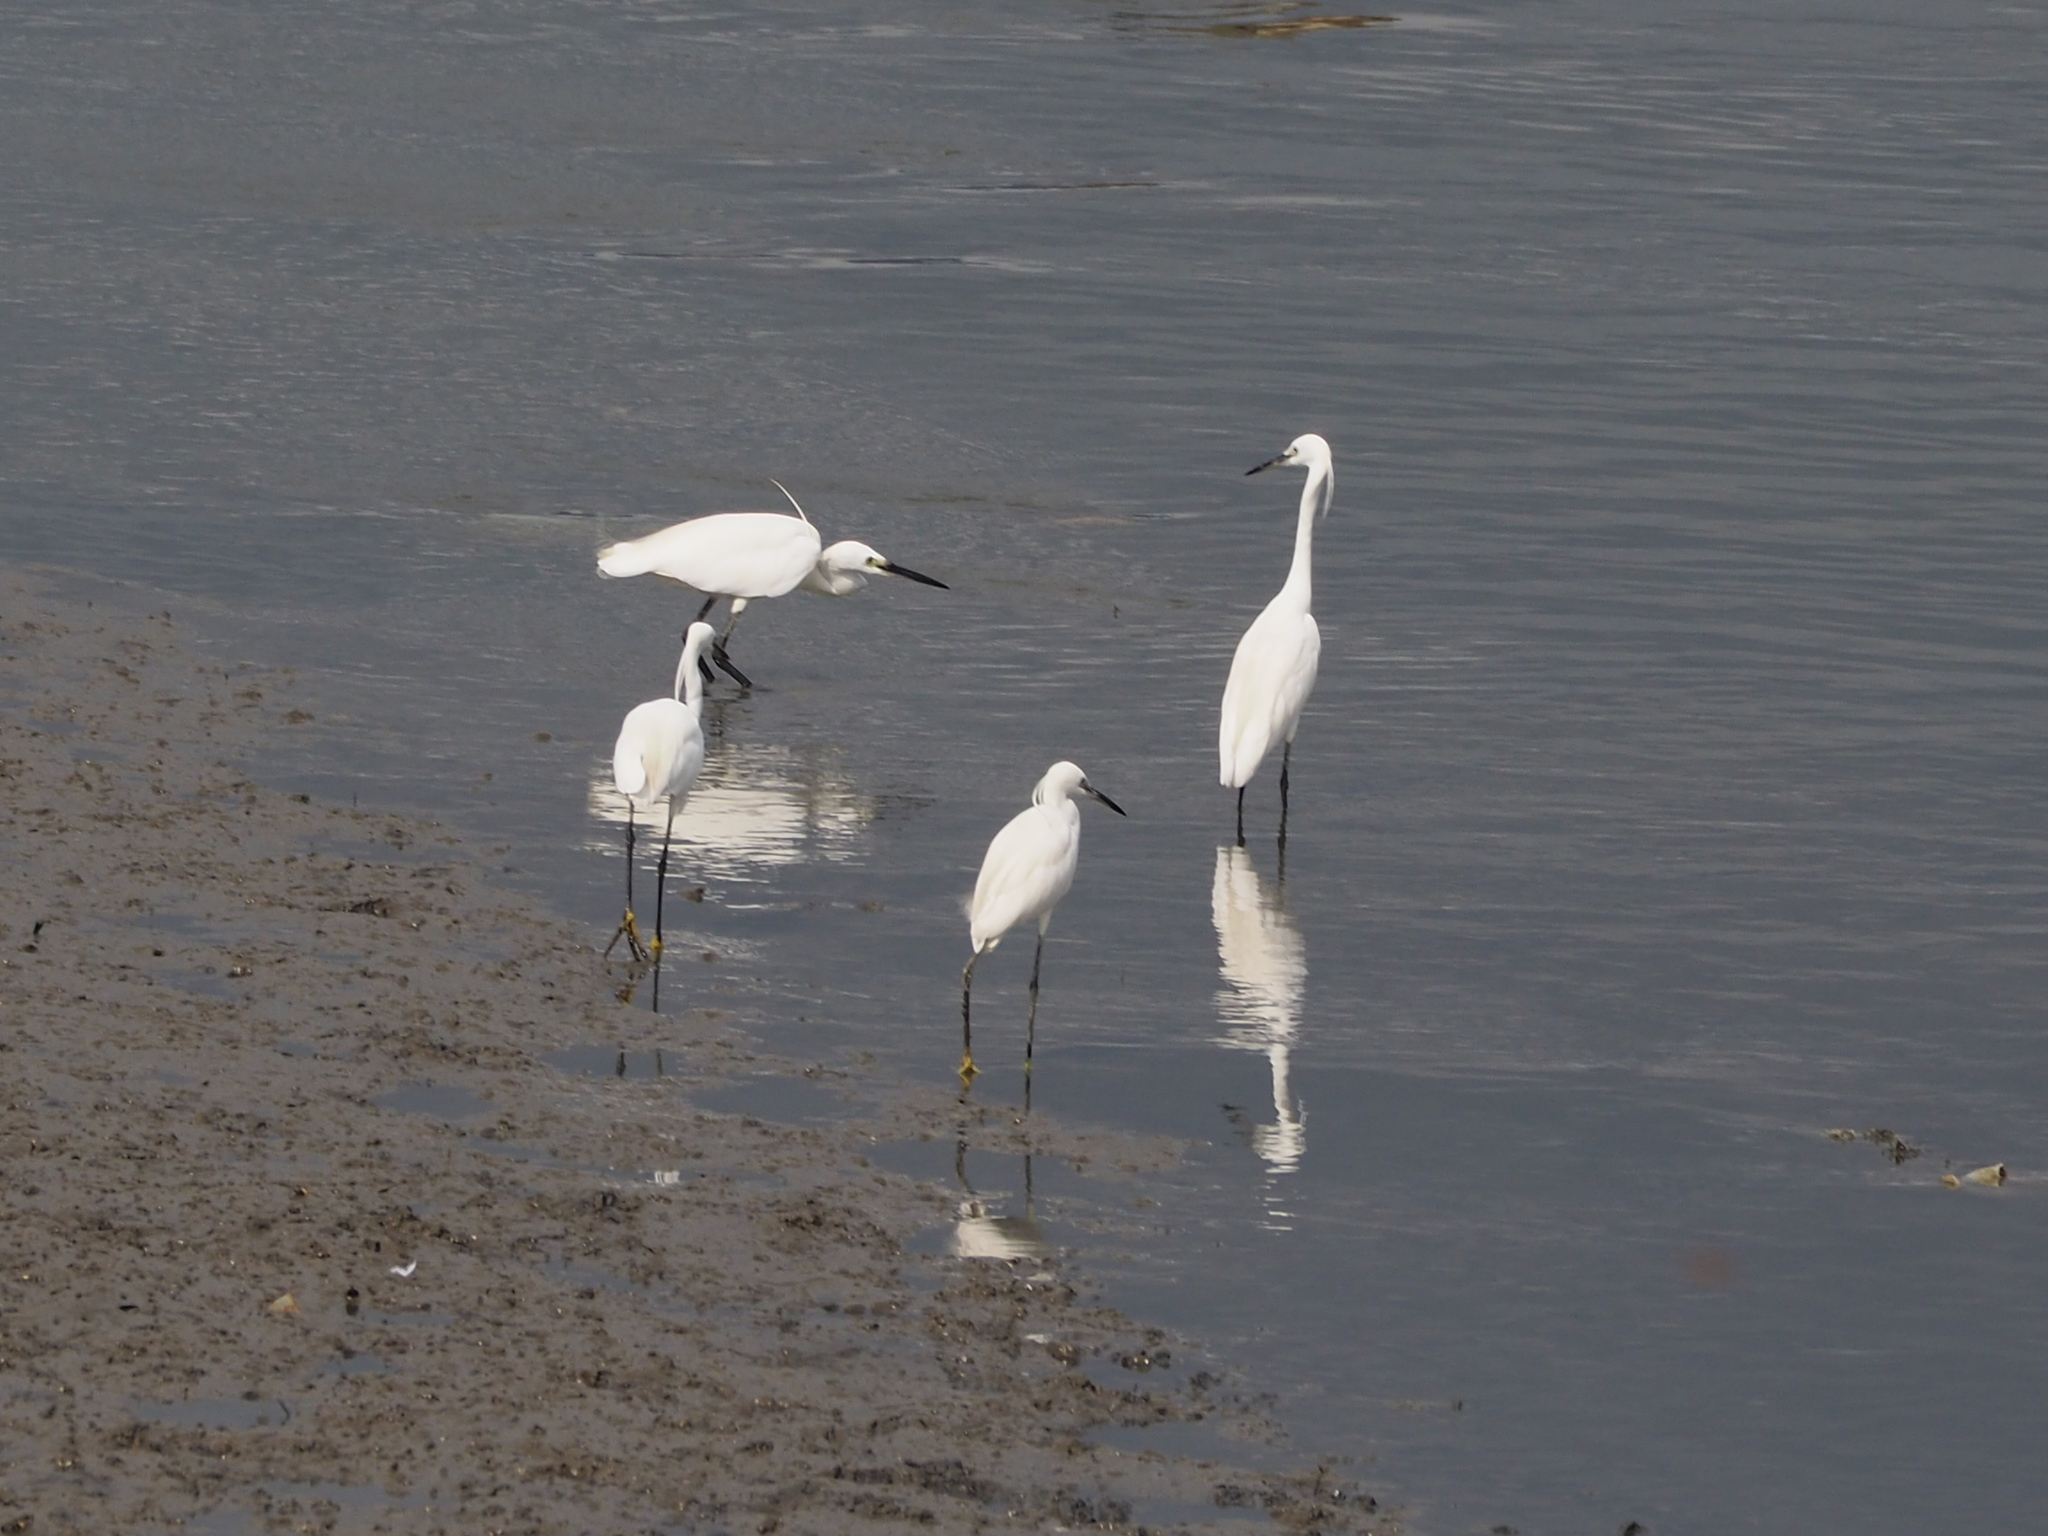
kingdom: Animalia
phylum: Chordata
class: Aves
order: Pelecaniformes
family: Ardeidae
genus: Egretta
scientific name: Egretta garzetta
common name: Little egret
